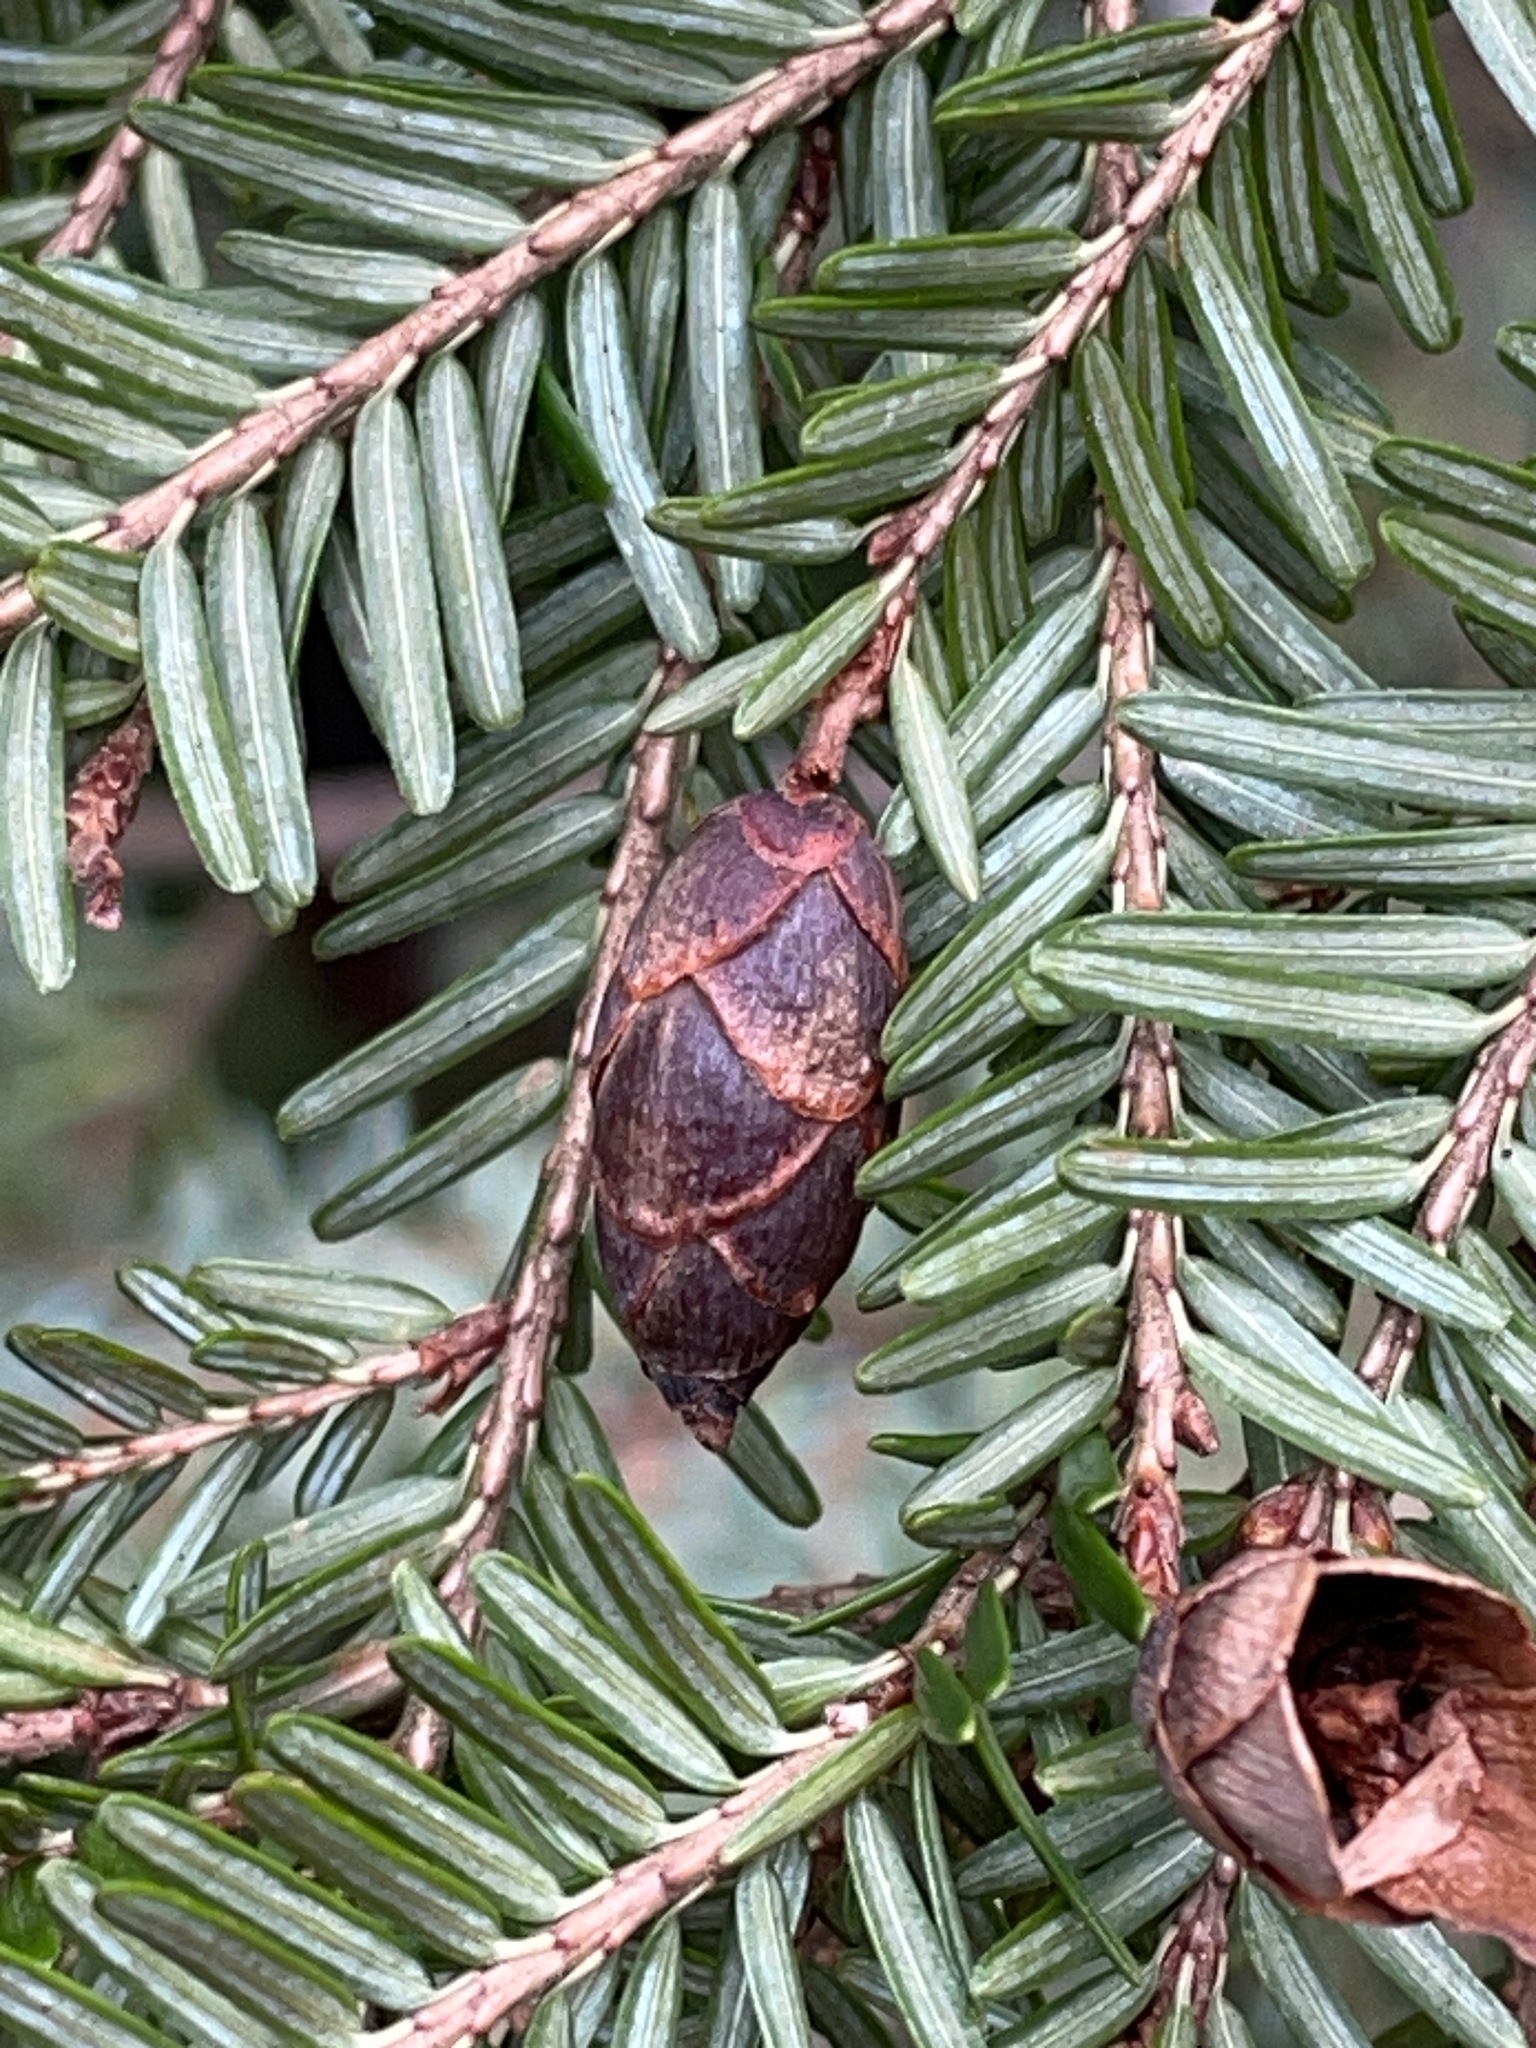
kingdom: Plantae
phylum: Tracheophyta
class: Pinopsida
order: Pinales
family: Pinaceae
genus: Tsuga
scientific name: Tsuga canadensis
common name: Eastern hemlock
